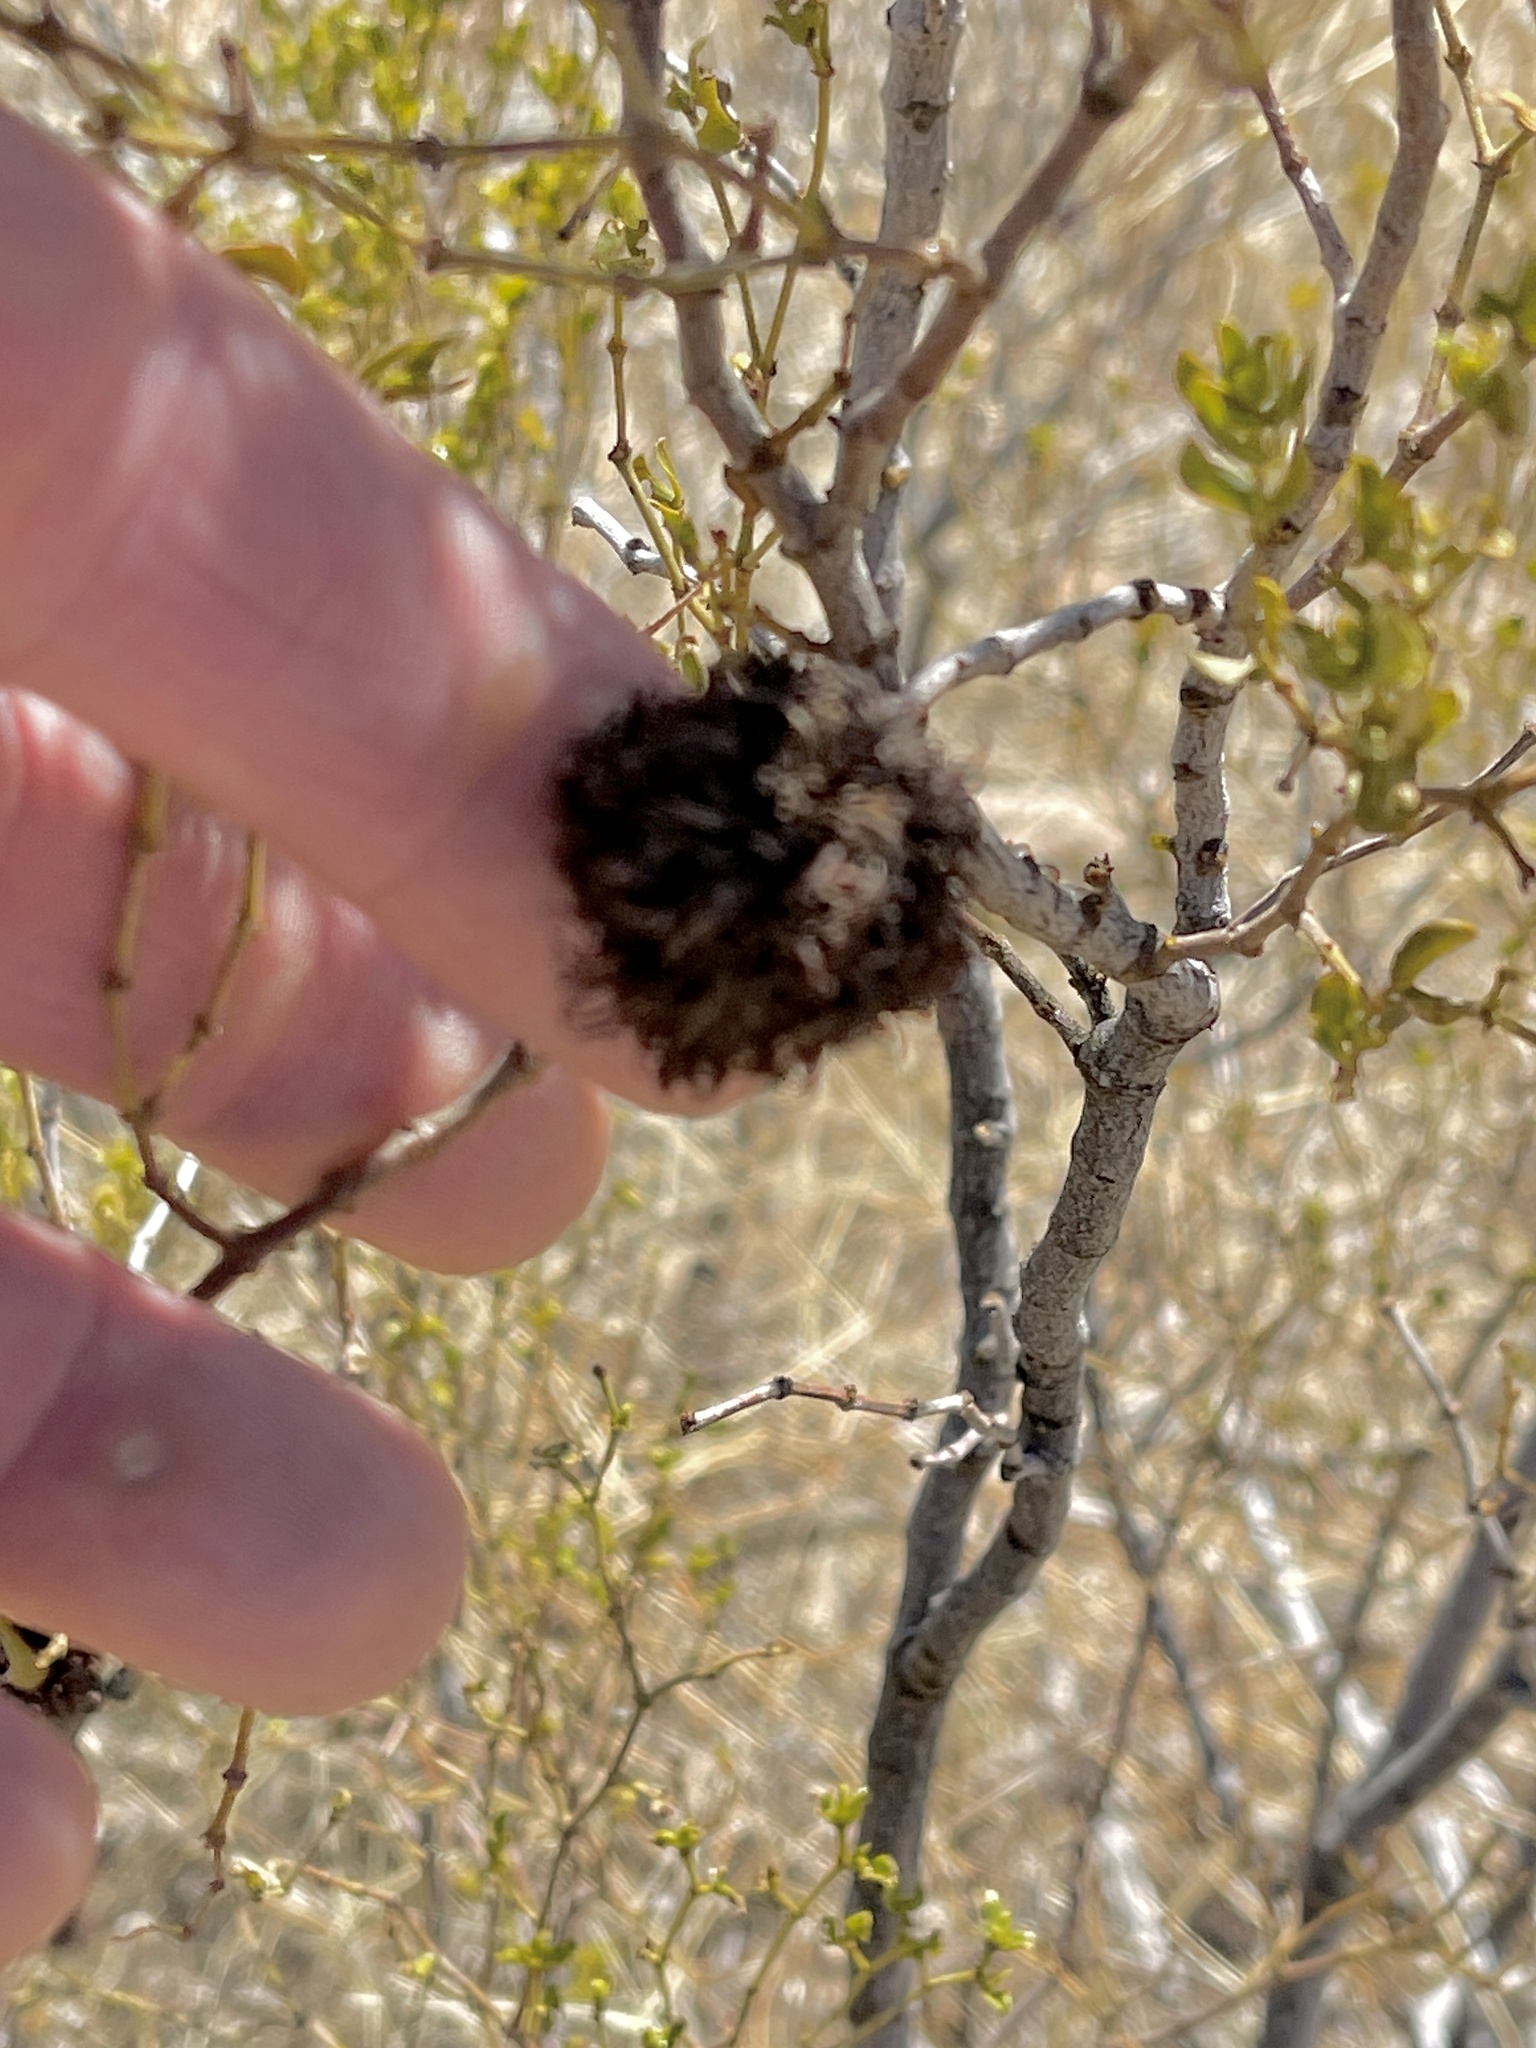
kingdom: Animalia
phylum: Arthropoda
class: Insecta
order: Diptera
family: Cecidomyiidae
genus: Asphondylia
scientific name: Asphondylia auripila
